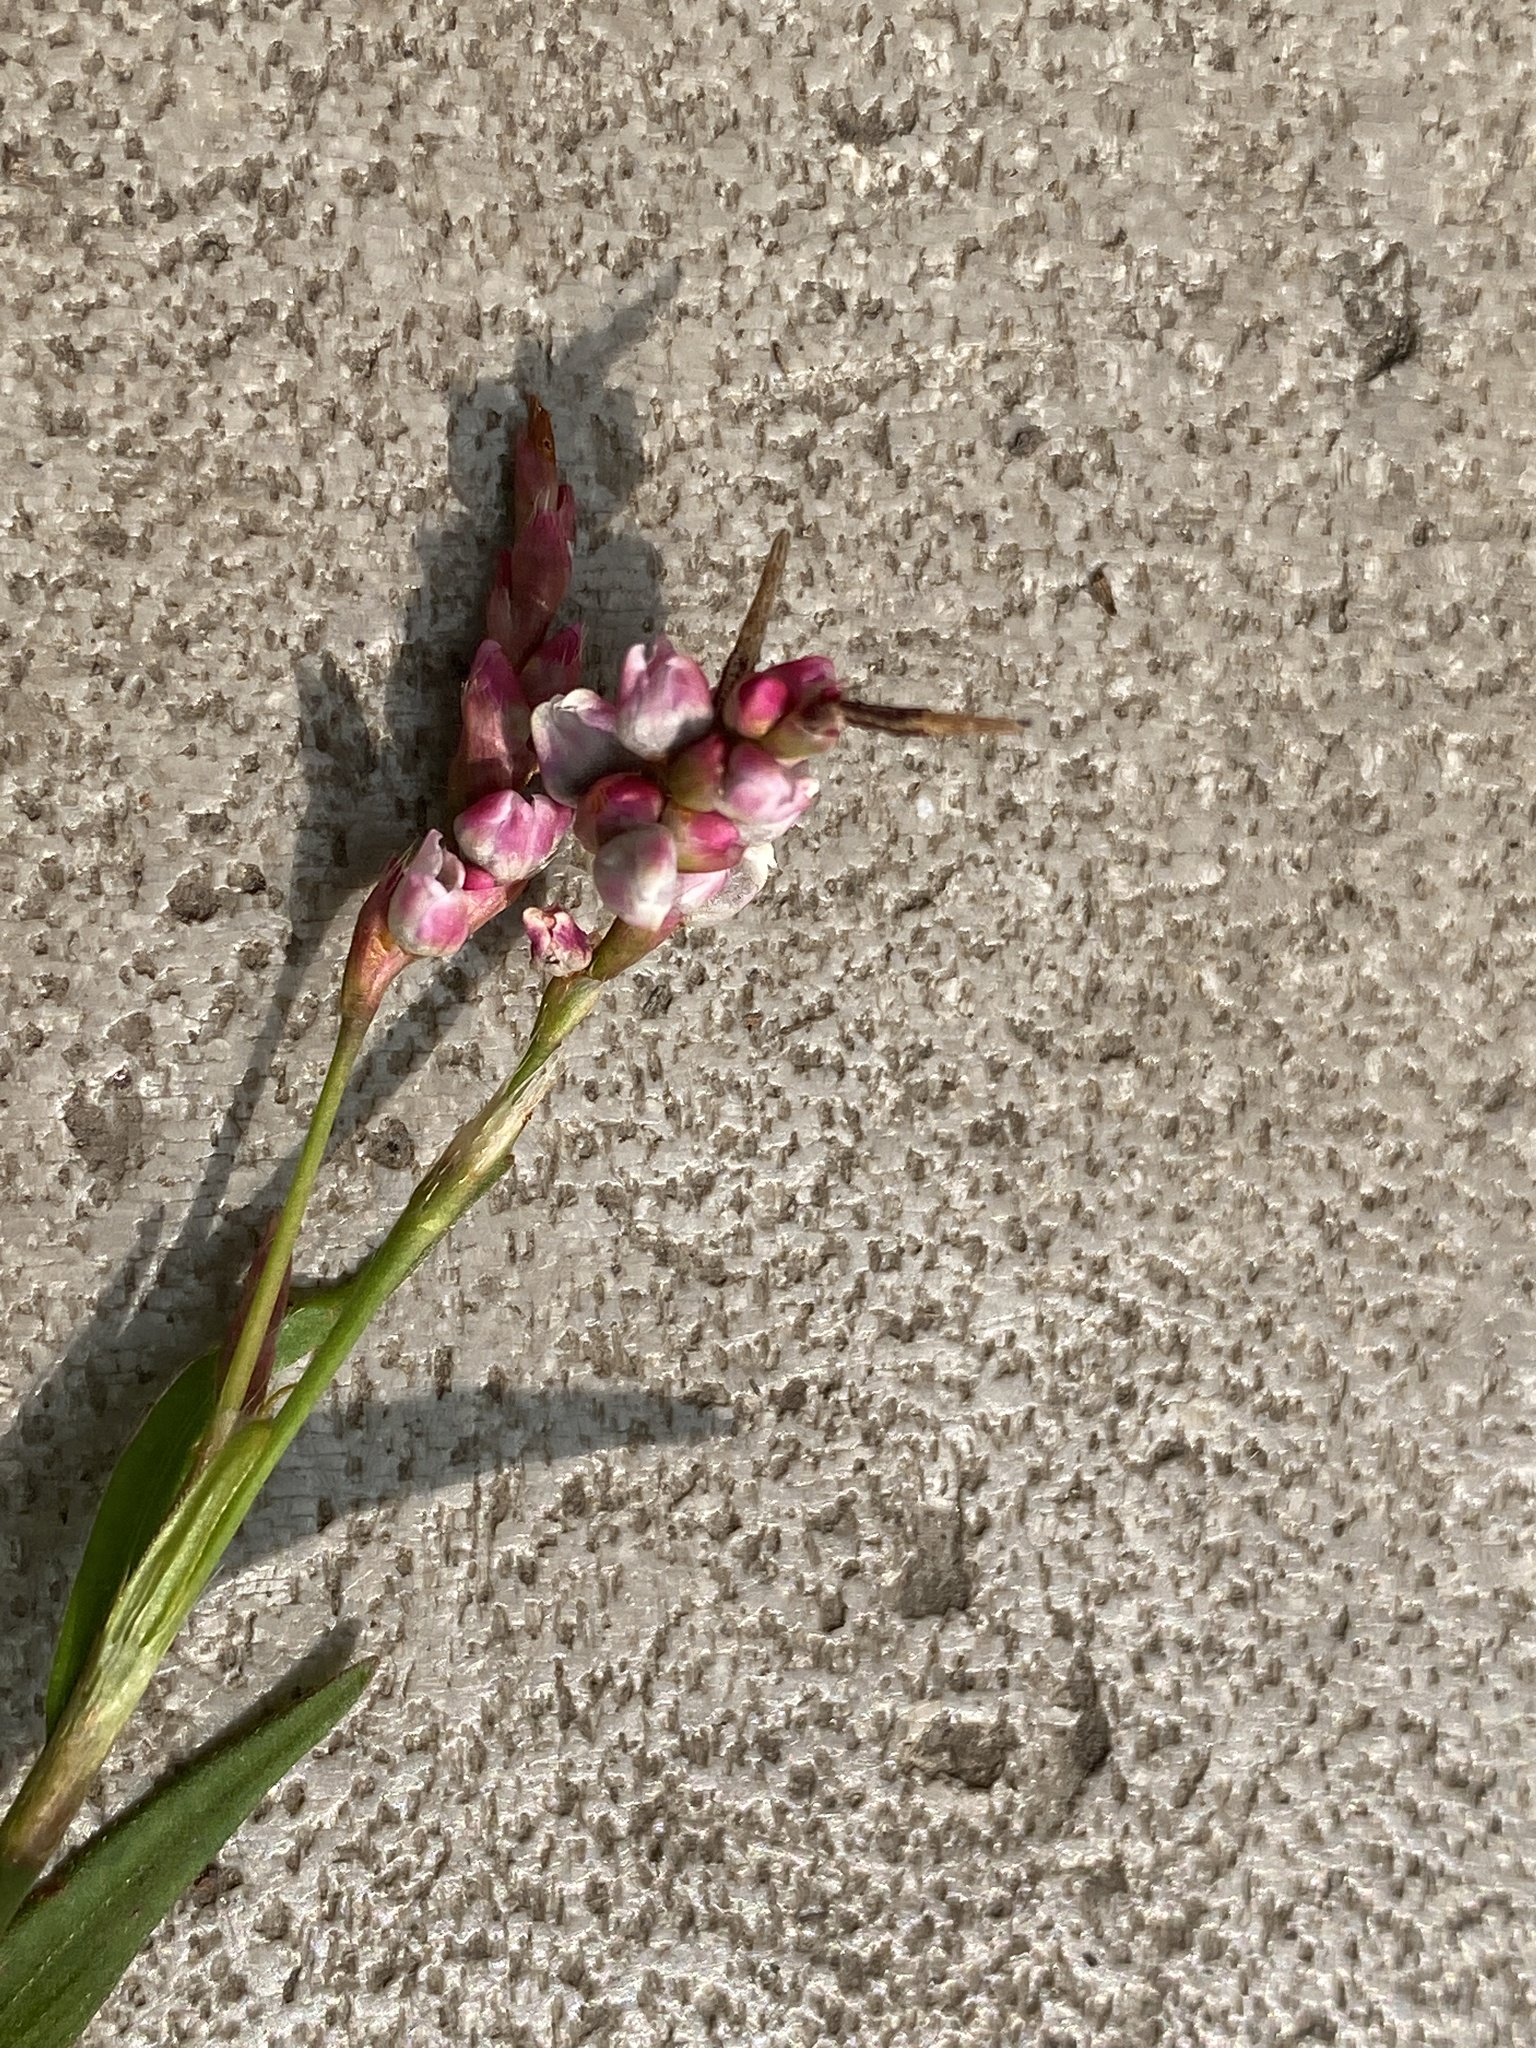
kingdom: Plantae
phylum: Tracheophyta
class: Magnoliopsida
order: Caryophyllales
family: Polygonaceae
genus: Persicaria
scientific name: Persicaria hydropiperoides
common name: Swamp smartweed
